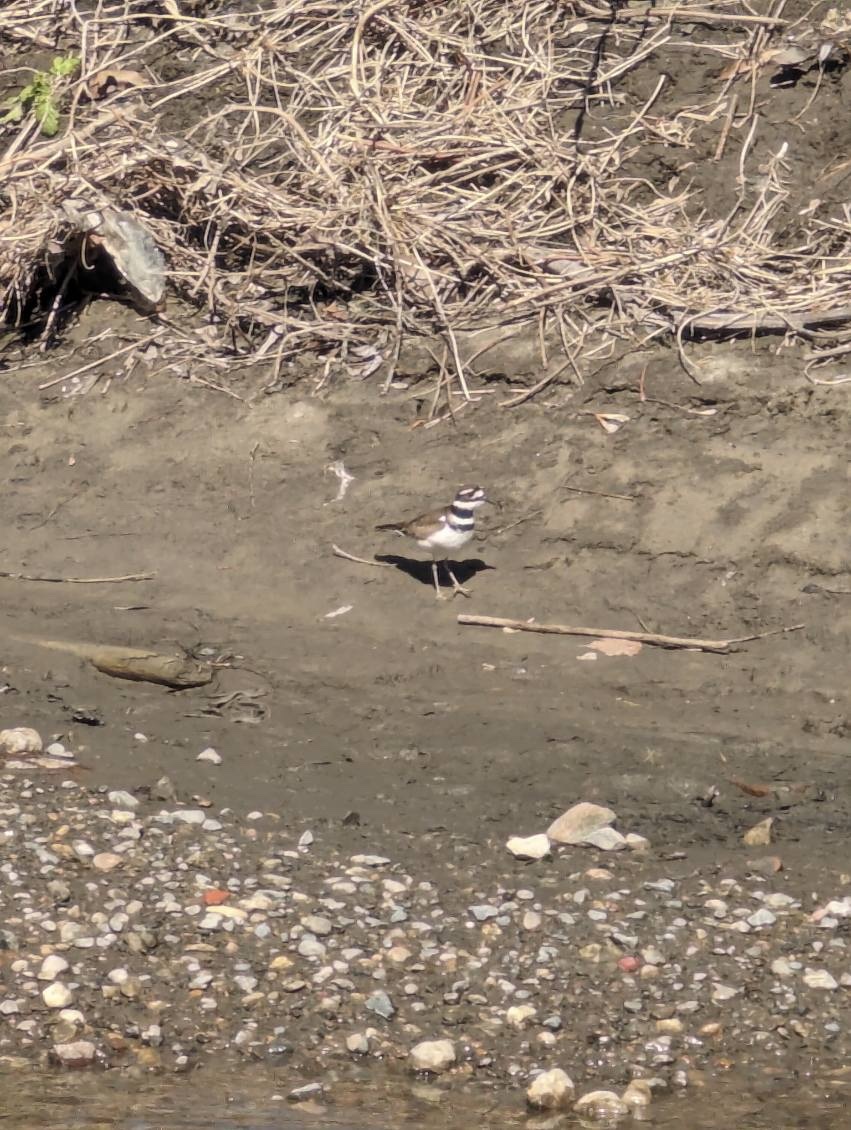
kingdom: Animalia
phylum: Chordata
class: Aves
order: Charadriiformes
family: Charadriidae
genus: Charadrius
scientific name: Charadrius vociferus
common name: Killdeer
